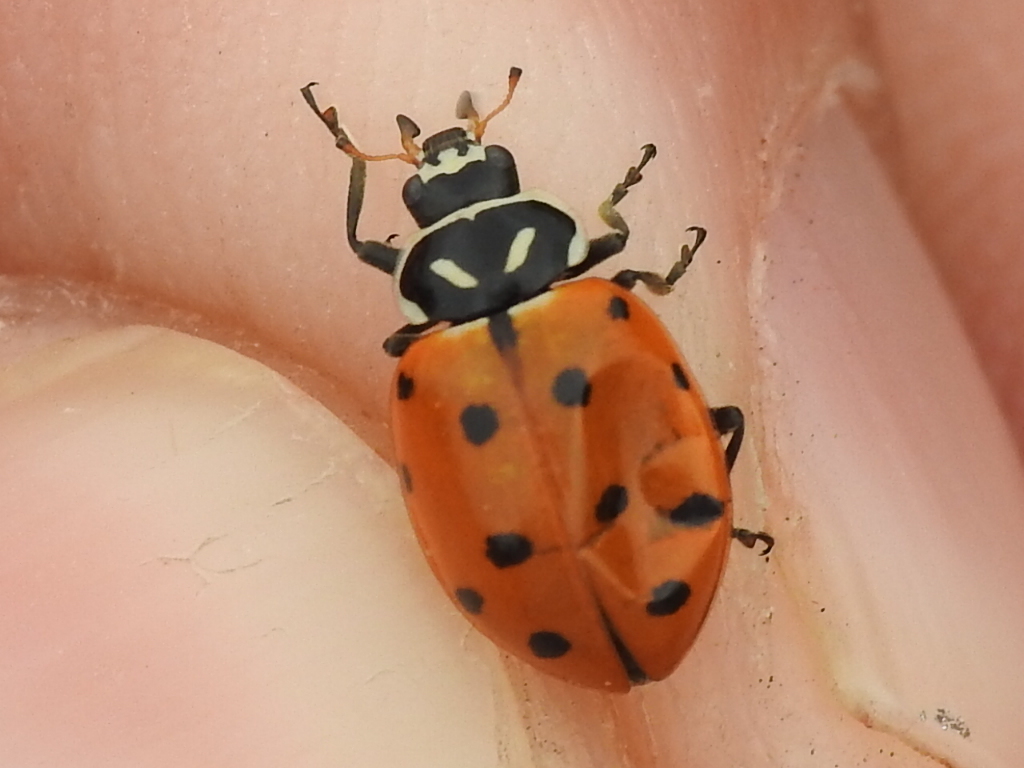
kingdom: Animalia
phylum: Arthropoda
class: Insecta
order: Coleoptera
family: Coccinellidae
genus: Hippodamia
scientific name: Hippodamia convergens
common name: Convergent lady beetle
